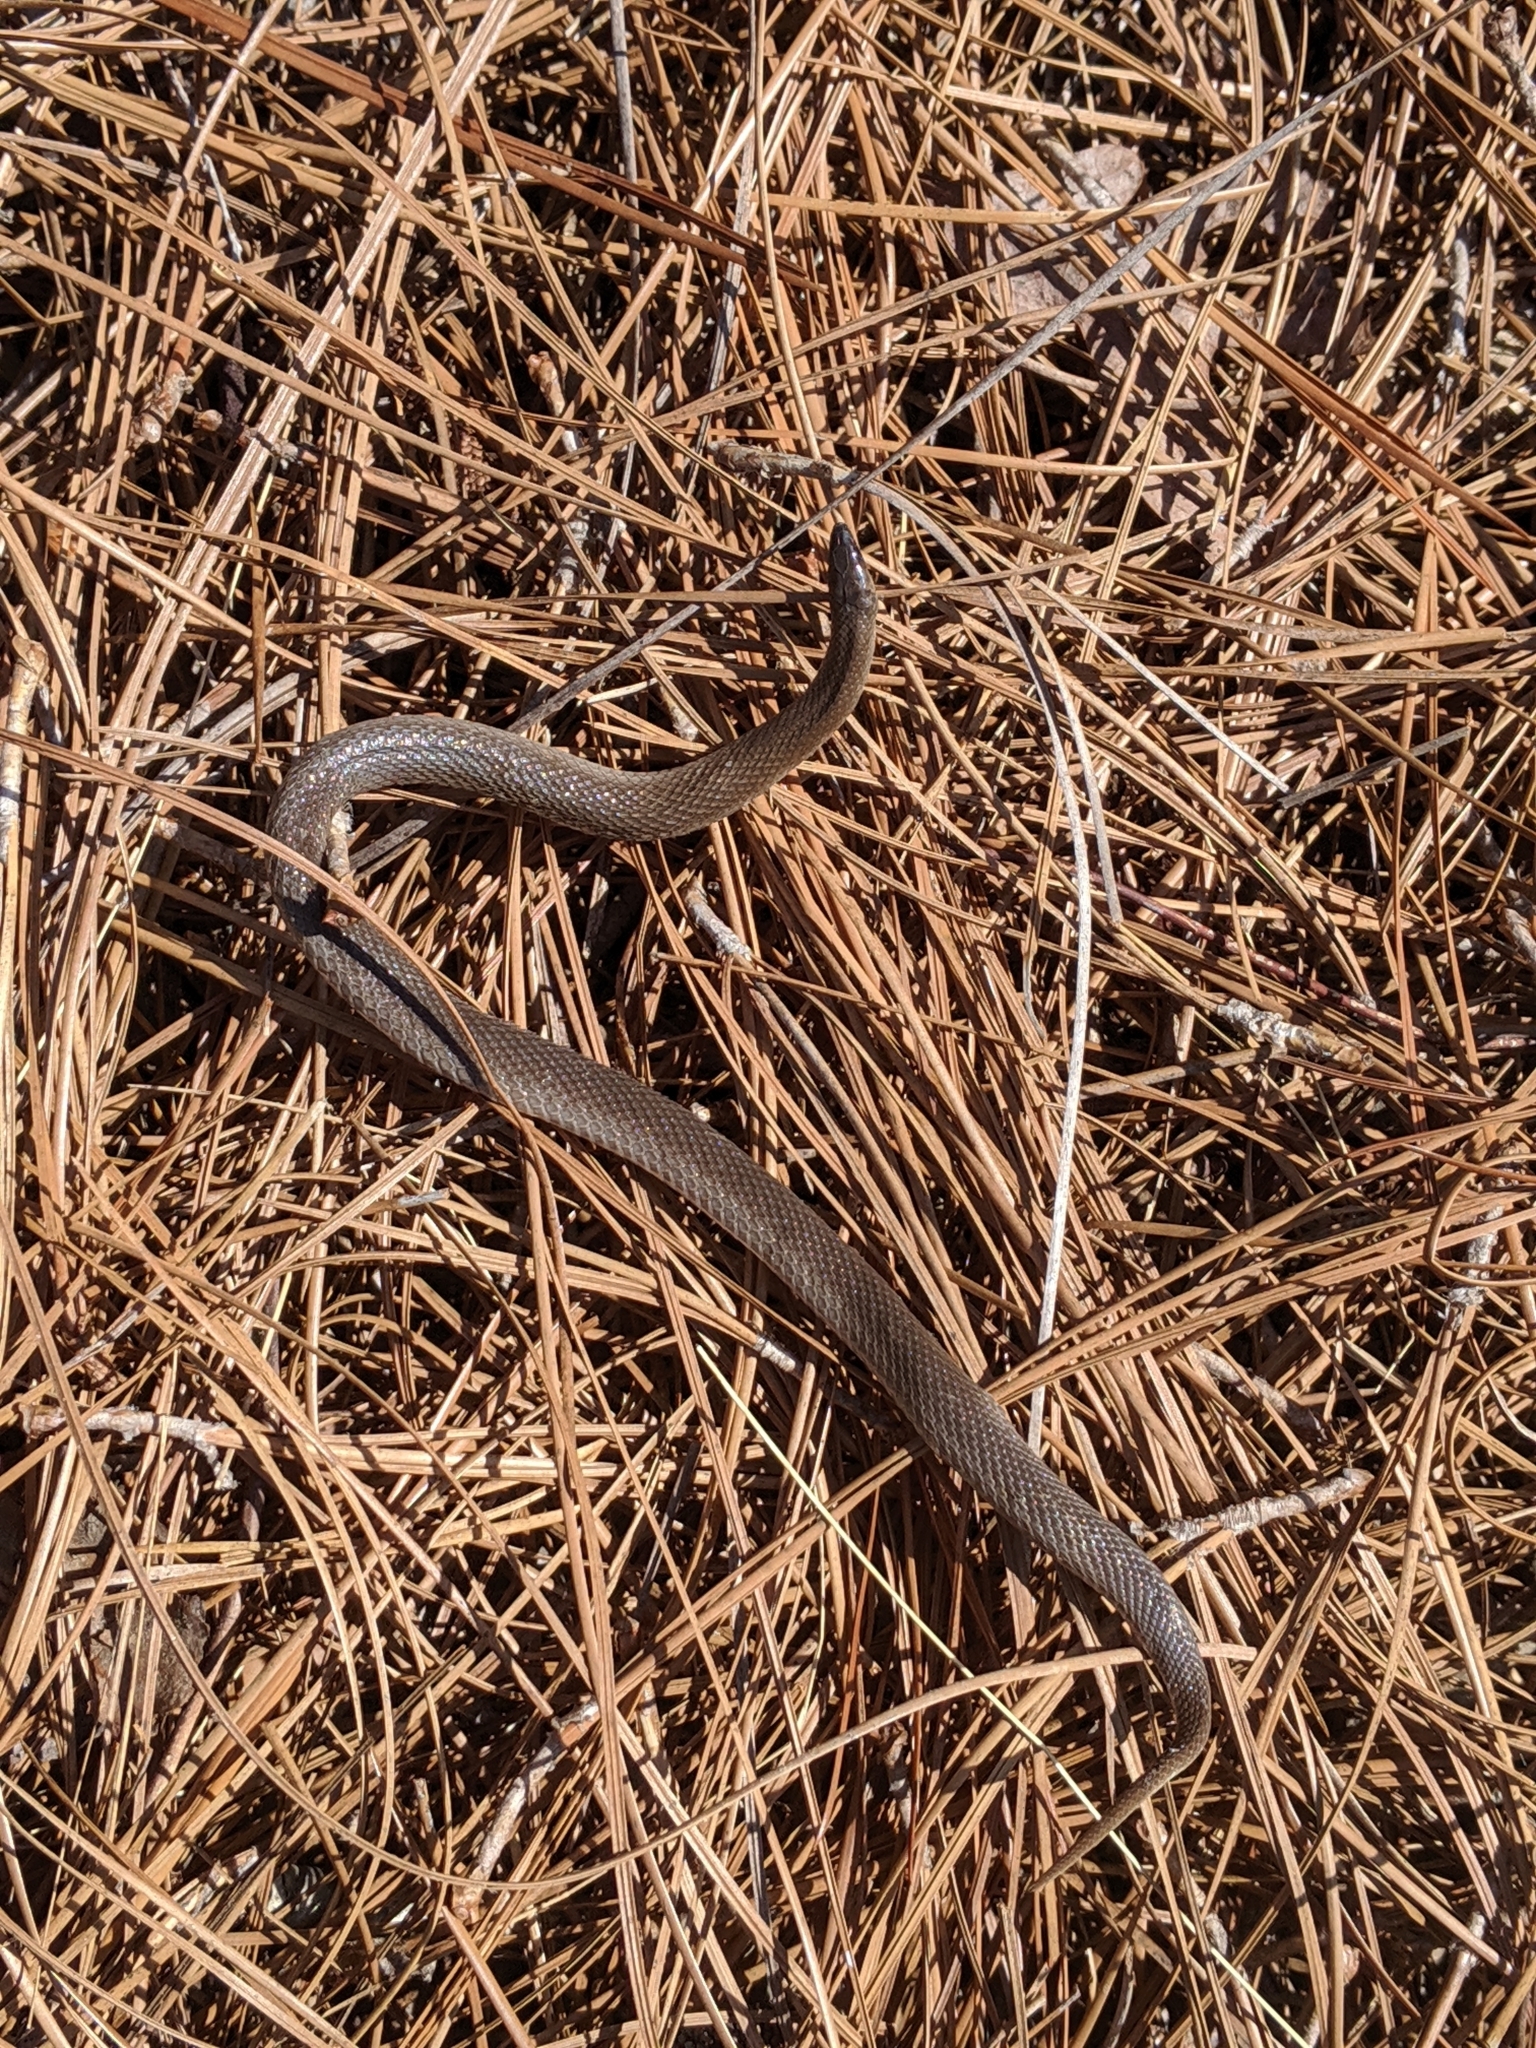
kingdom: Animalia
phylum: Chordata
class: Squamata
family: Colubridae
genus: Haldea
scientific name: Haldea striatula
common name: Rough earth snake
